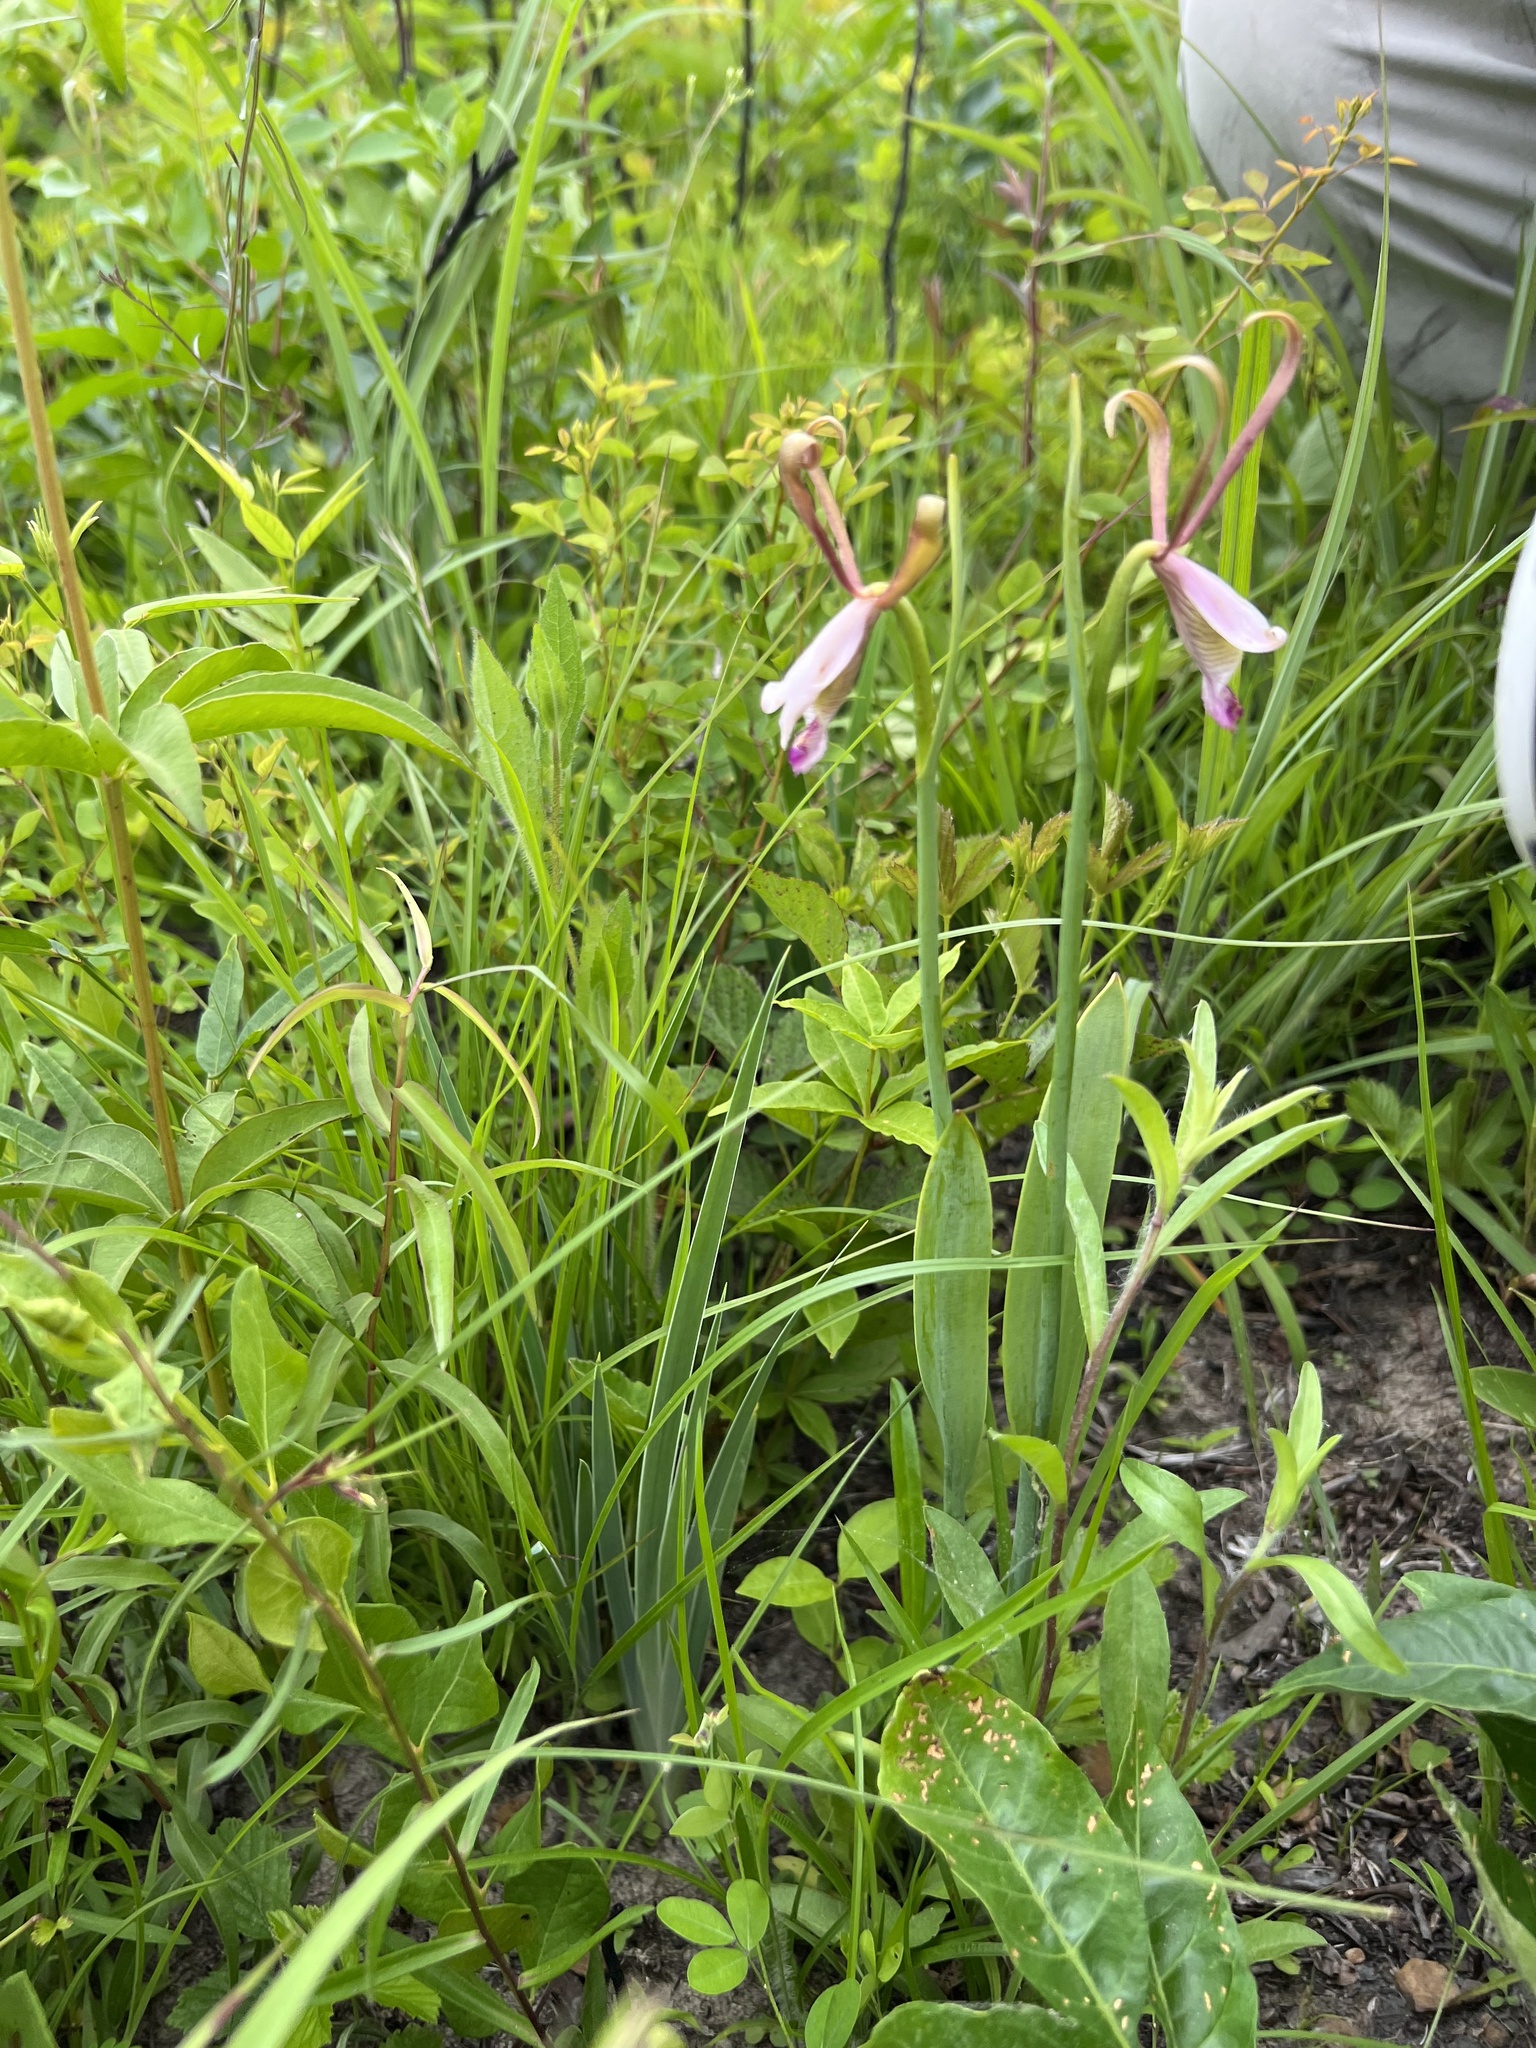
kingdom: Plantae
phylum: Tracheophyta
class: Liliopsida
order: Asparagales
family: Orchidaceae
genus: Cleistesiopsis
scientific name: Cleistesiopsis bifaria
